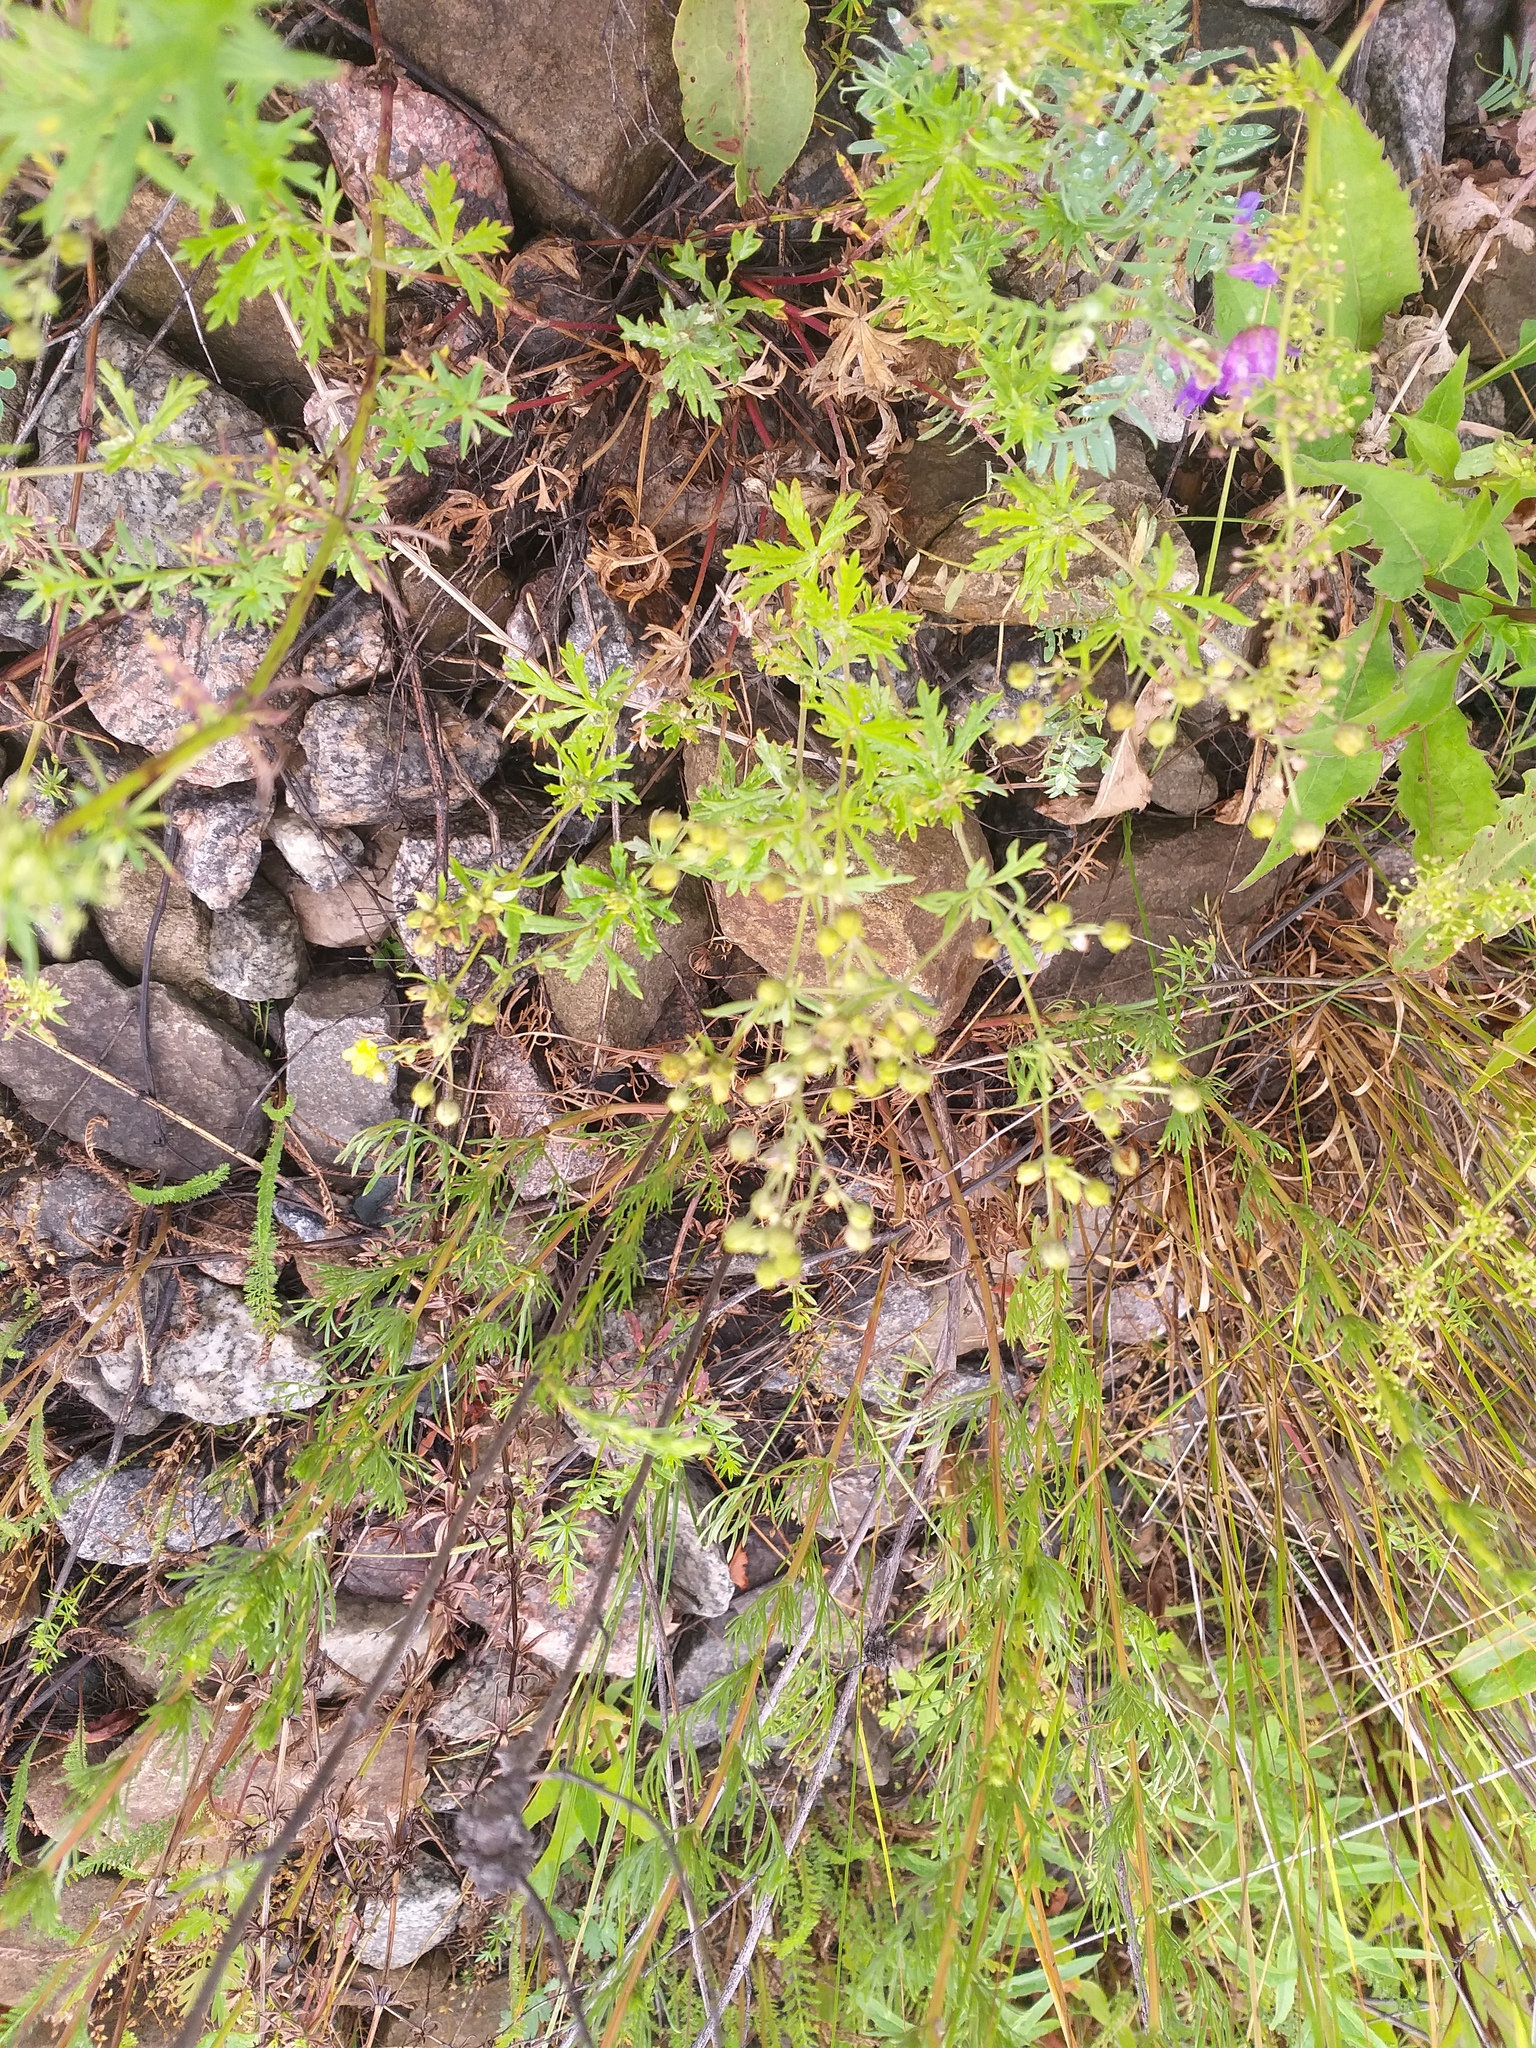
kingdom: Plantae
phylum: Tracheophyta
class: Magnoliopsida
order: Rosales
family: Rosaceae
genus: Potentilla
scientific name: Potentilla argentea
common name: Hoary cinquefoil
